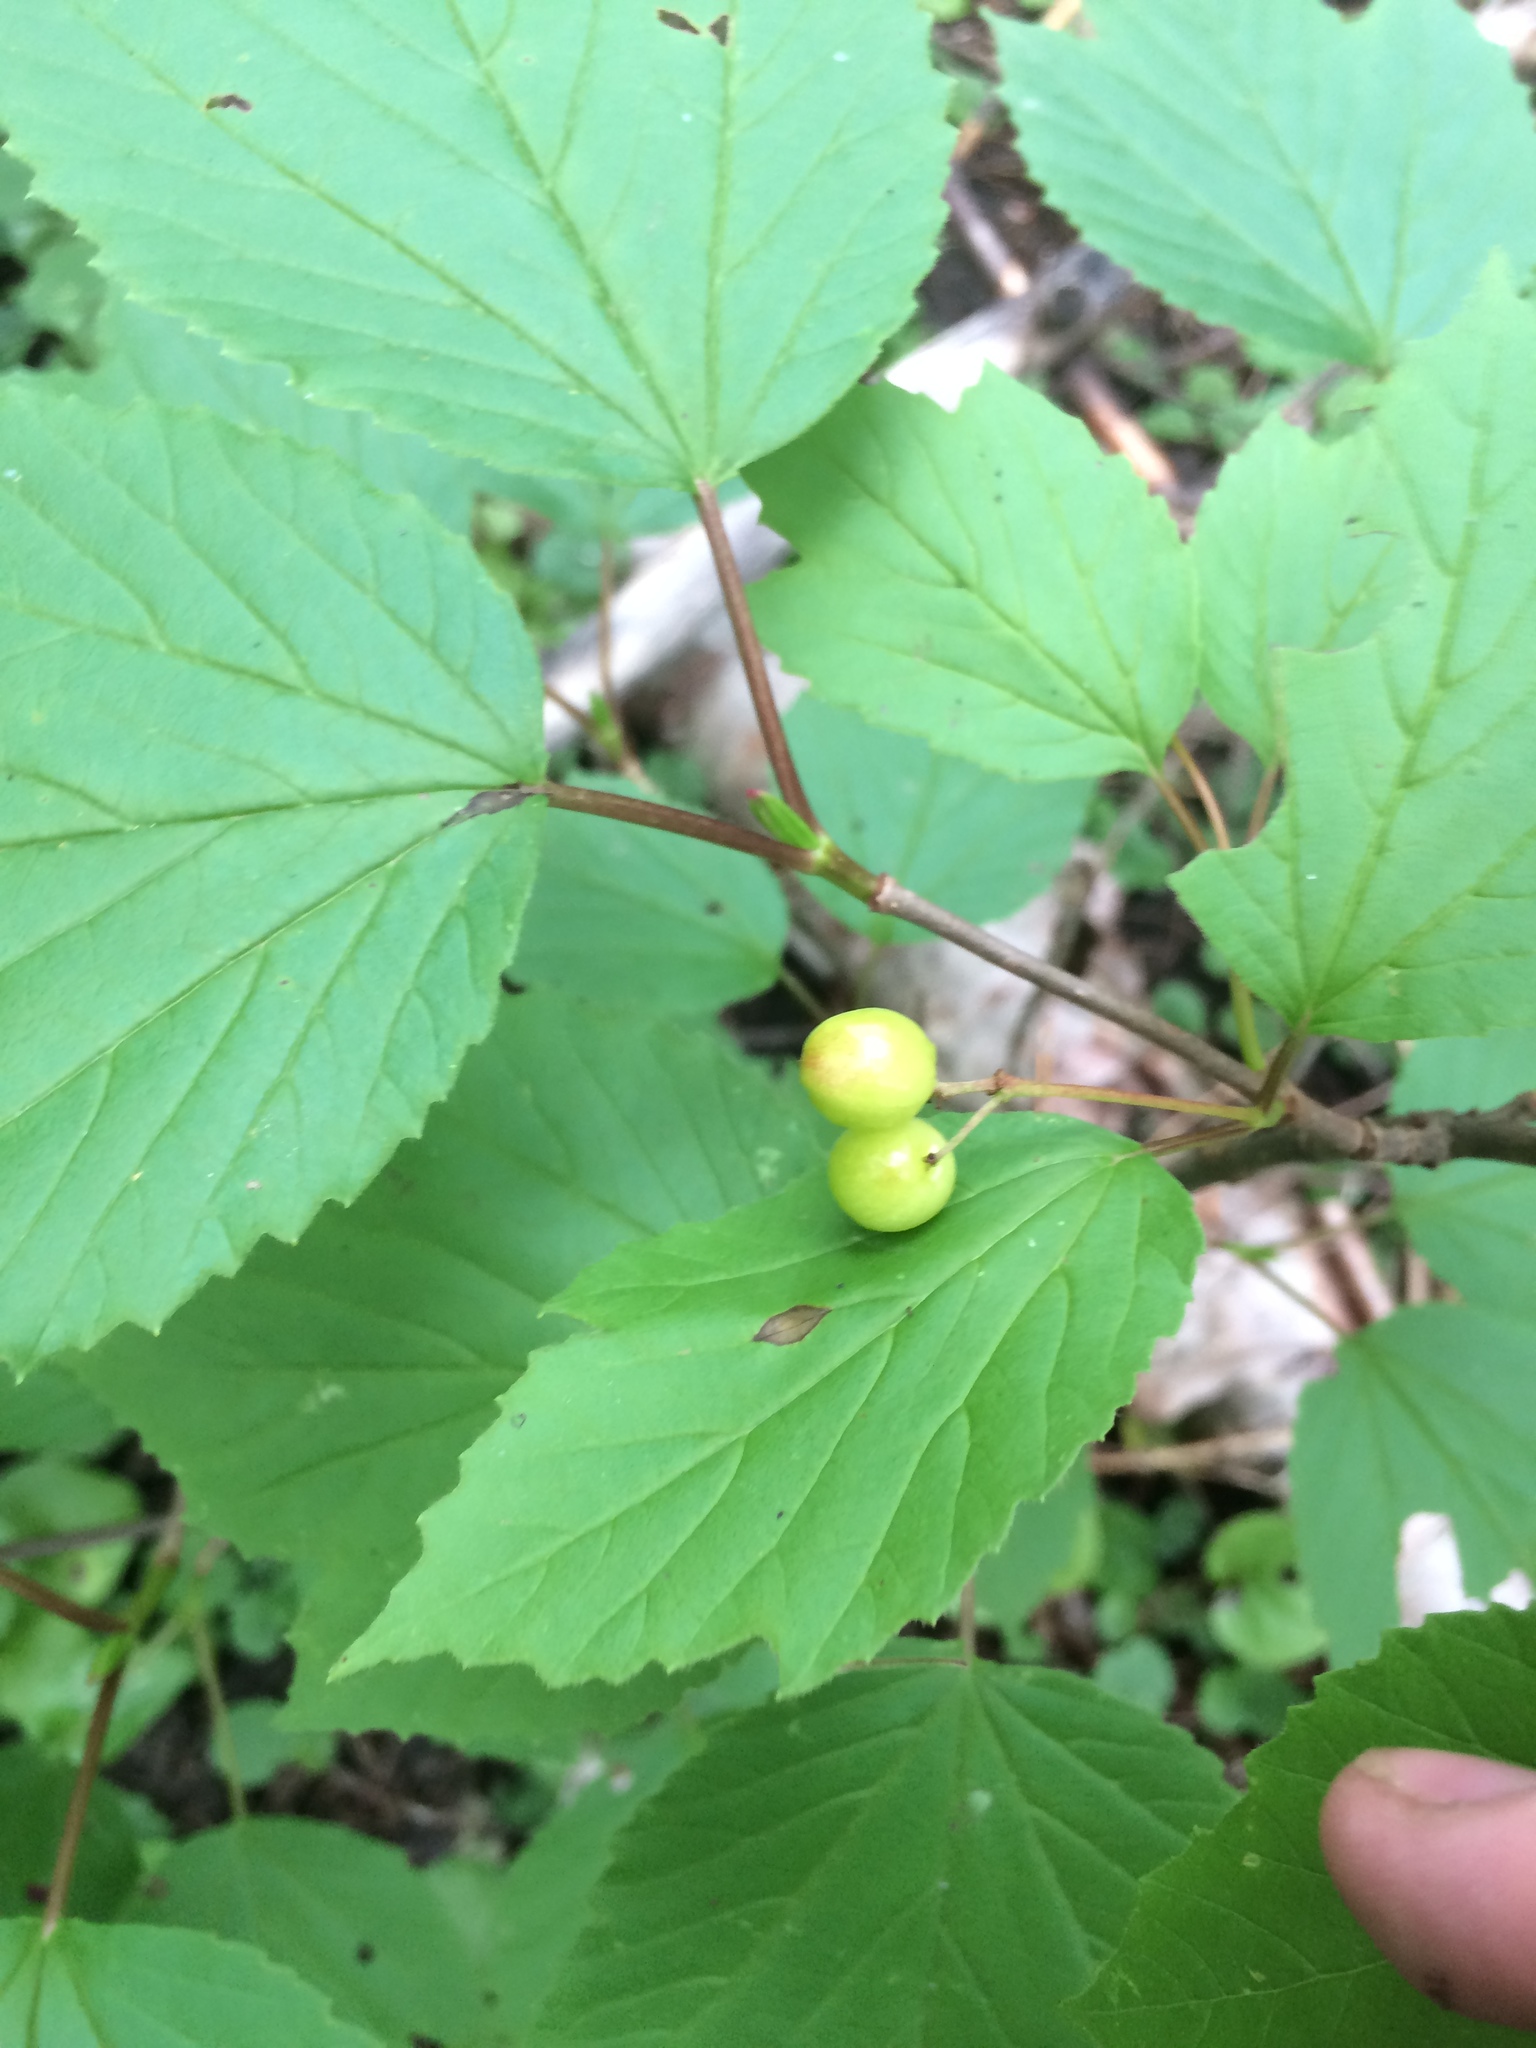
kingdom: Plantae
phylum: Tracheophyta
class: Magnoliopsida
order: Dipsacales
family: Viburnaceae
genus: Viburnum
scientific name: Viburnum edule
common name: Mooseberry
